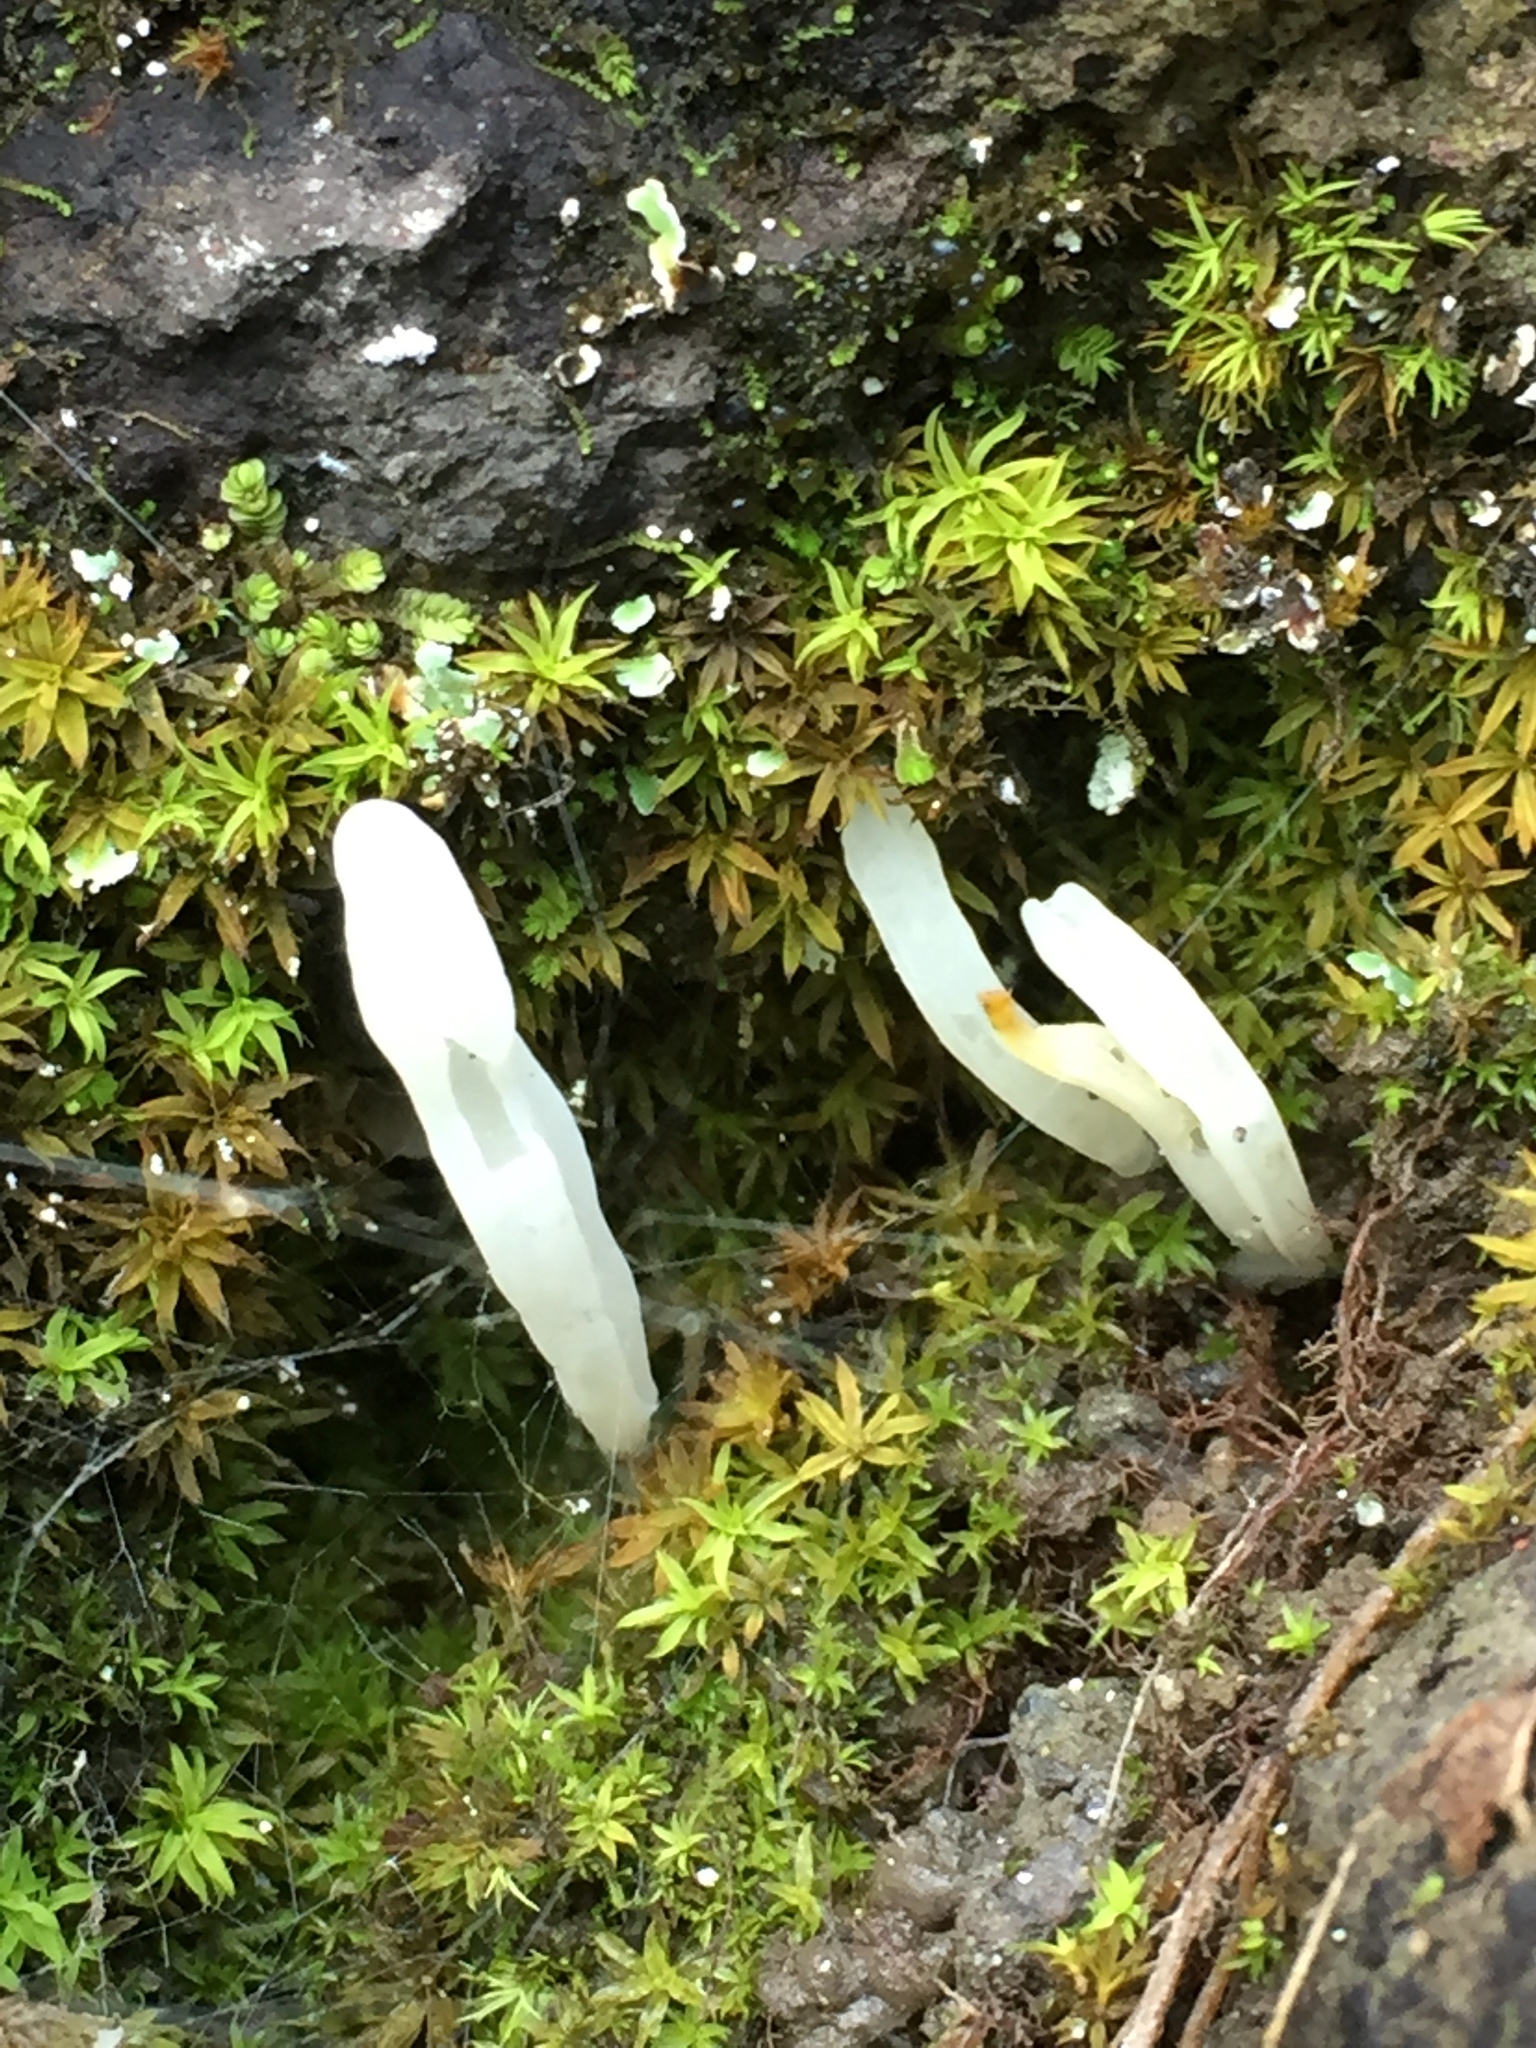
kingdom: Fungi
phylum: Basidiomycota
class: Agaricomycetes
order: Agaricales
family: Clavariaceae
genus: Clavaria
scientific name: Clavaria fragilis
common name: White spindles
